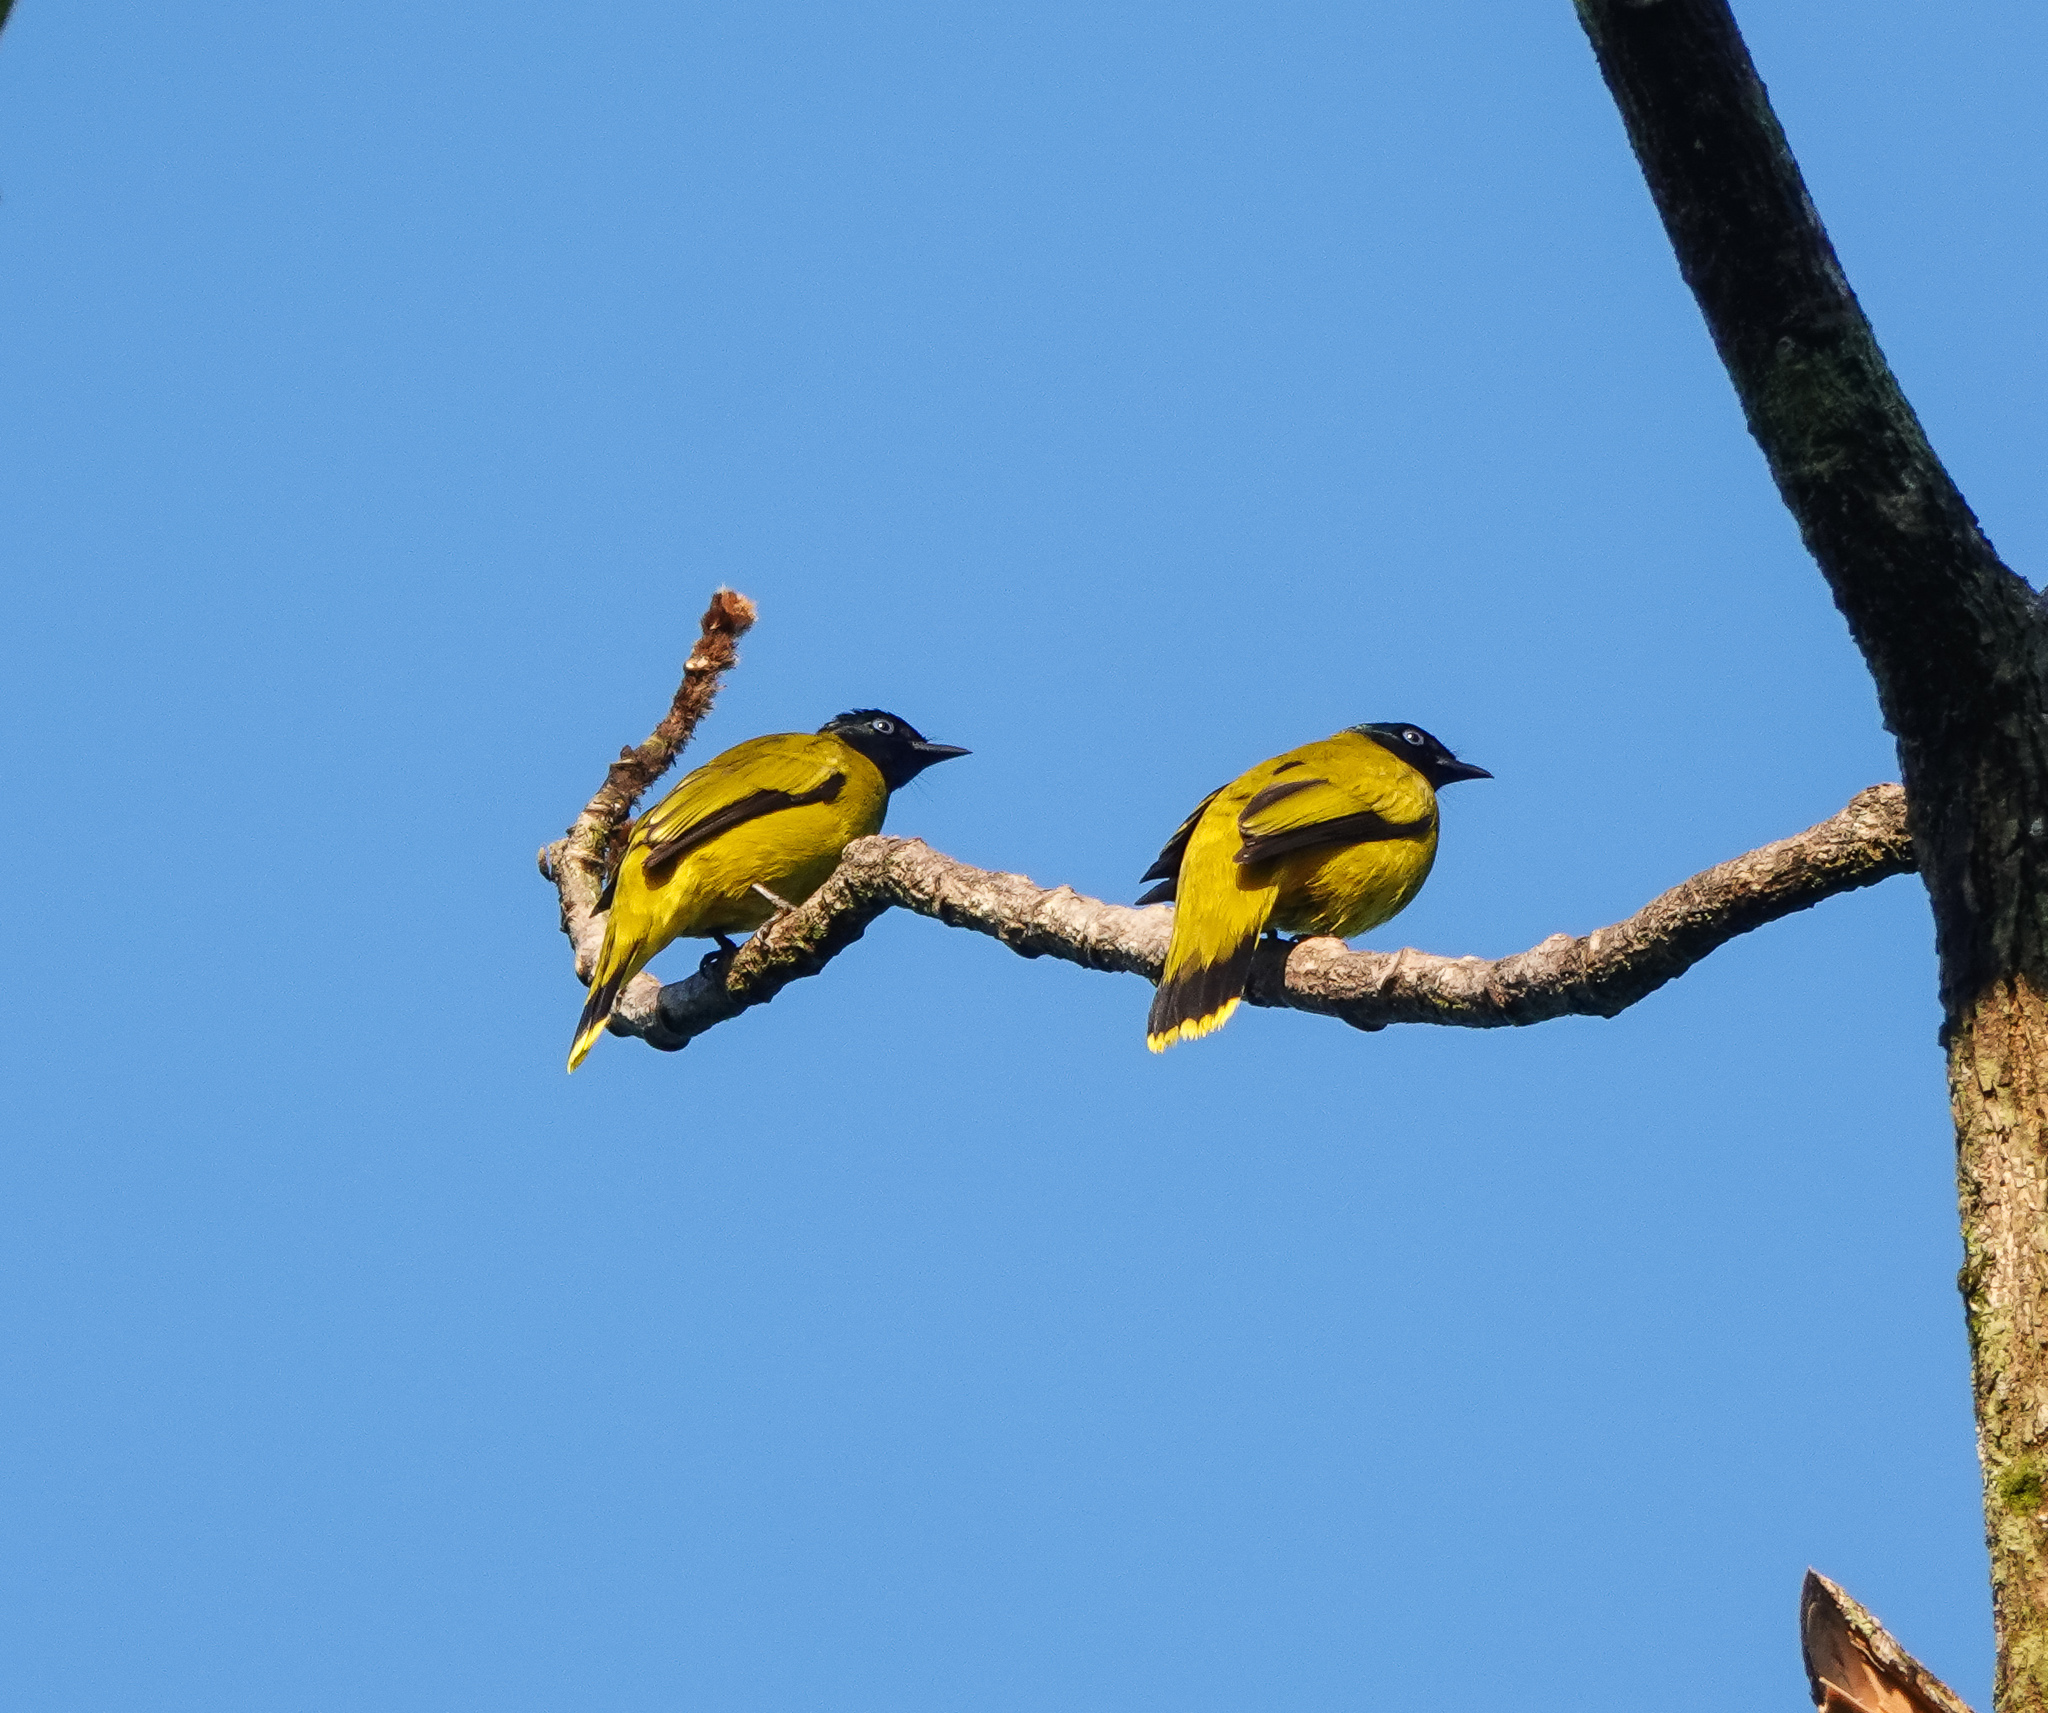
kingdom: Animalia
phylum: Chordata
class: Aves
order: Passeriformes
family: Pycnonotidae
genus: Microtarsus
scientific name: Microtarsus
